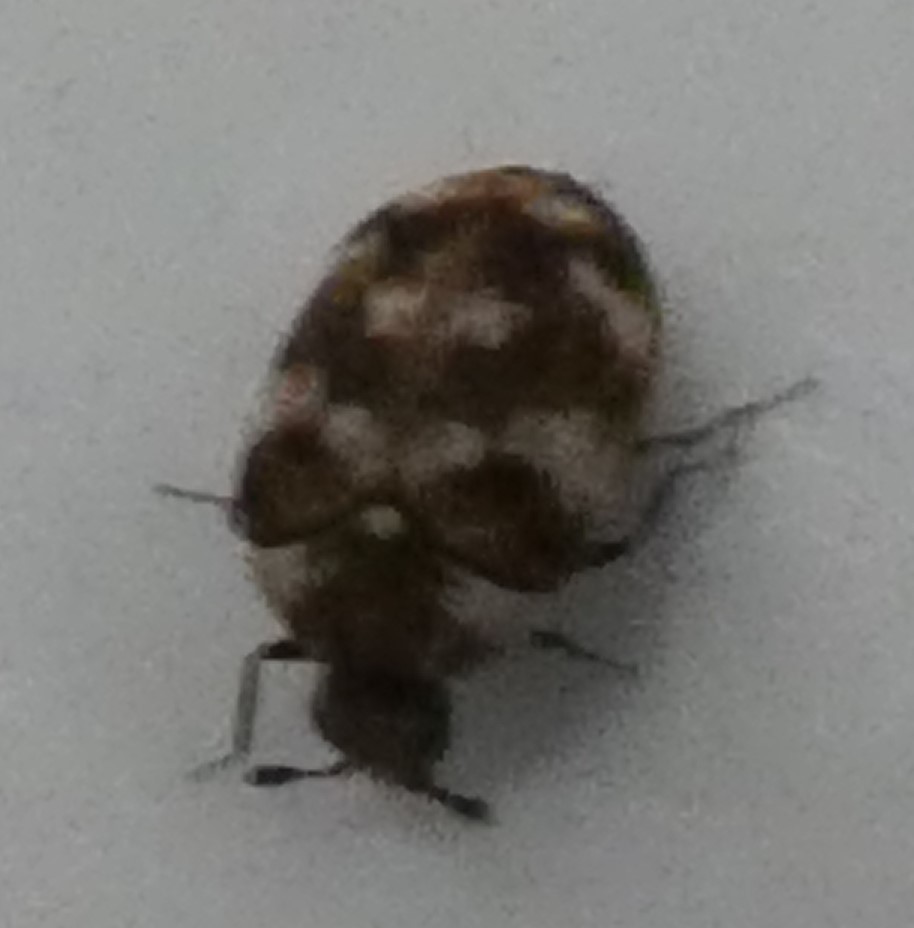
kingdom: Animalia
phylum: Arthropoda
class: Insecta
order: Coleoptera
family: Dermestidae
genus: Anthrenus
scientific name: Anthrenus verbasci
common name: Varied carpet beetle
